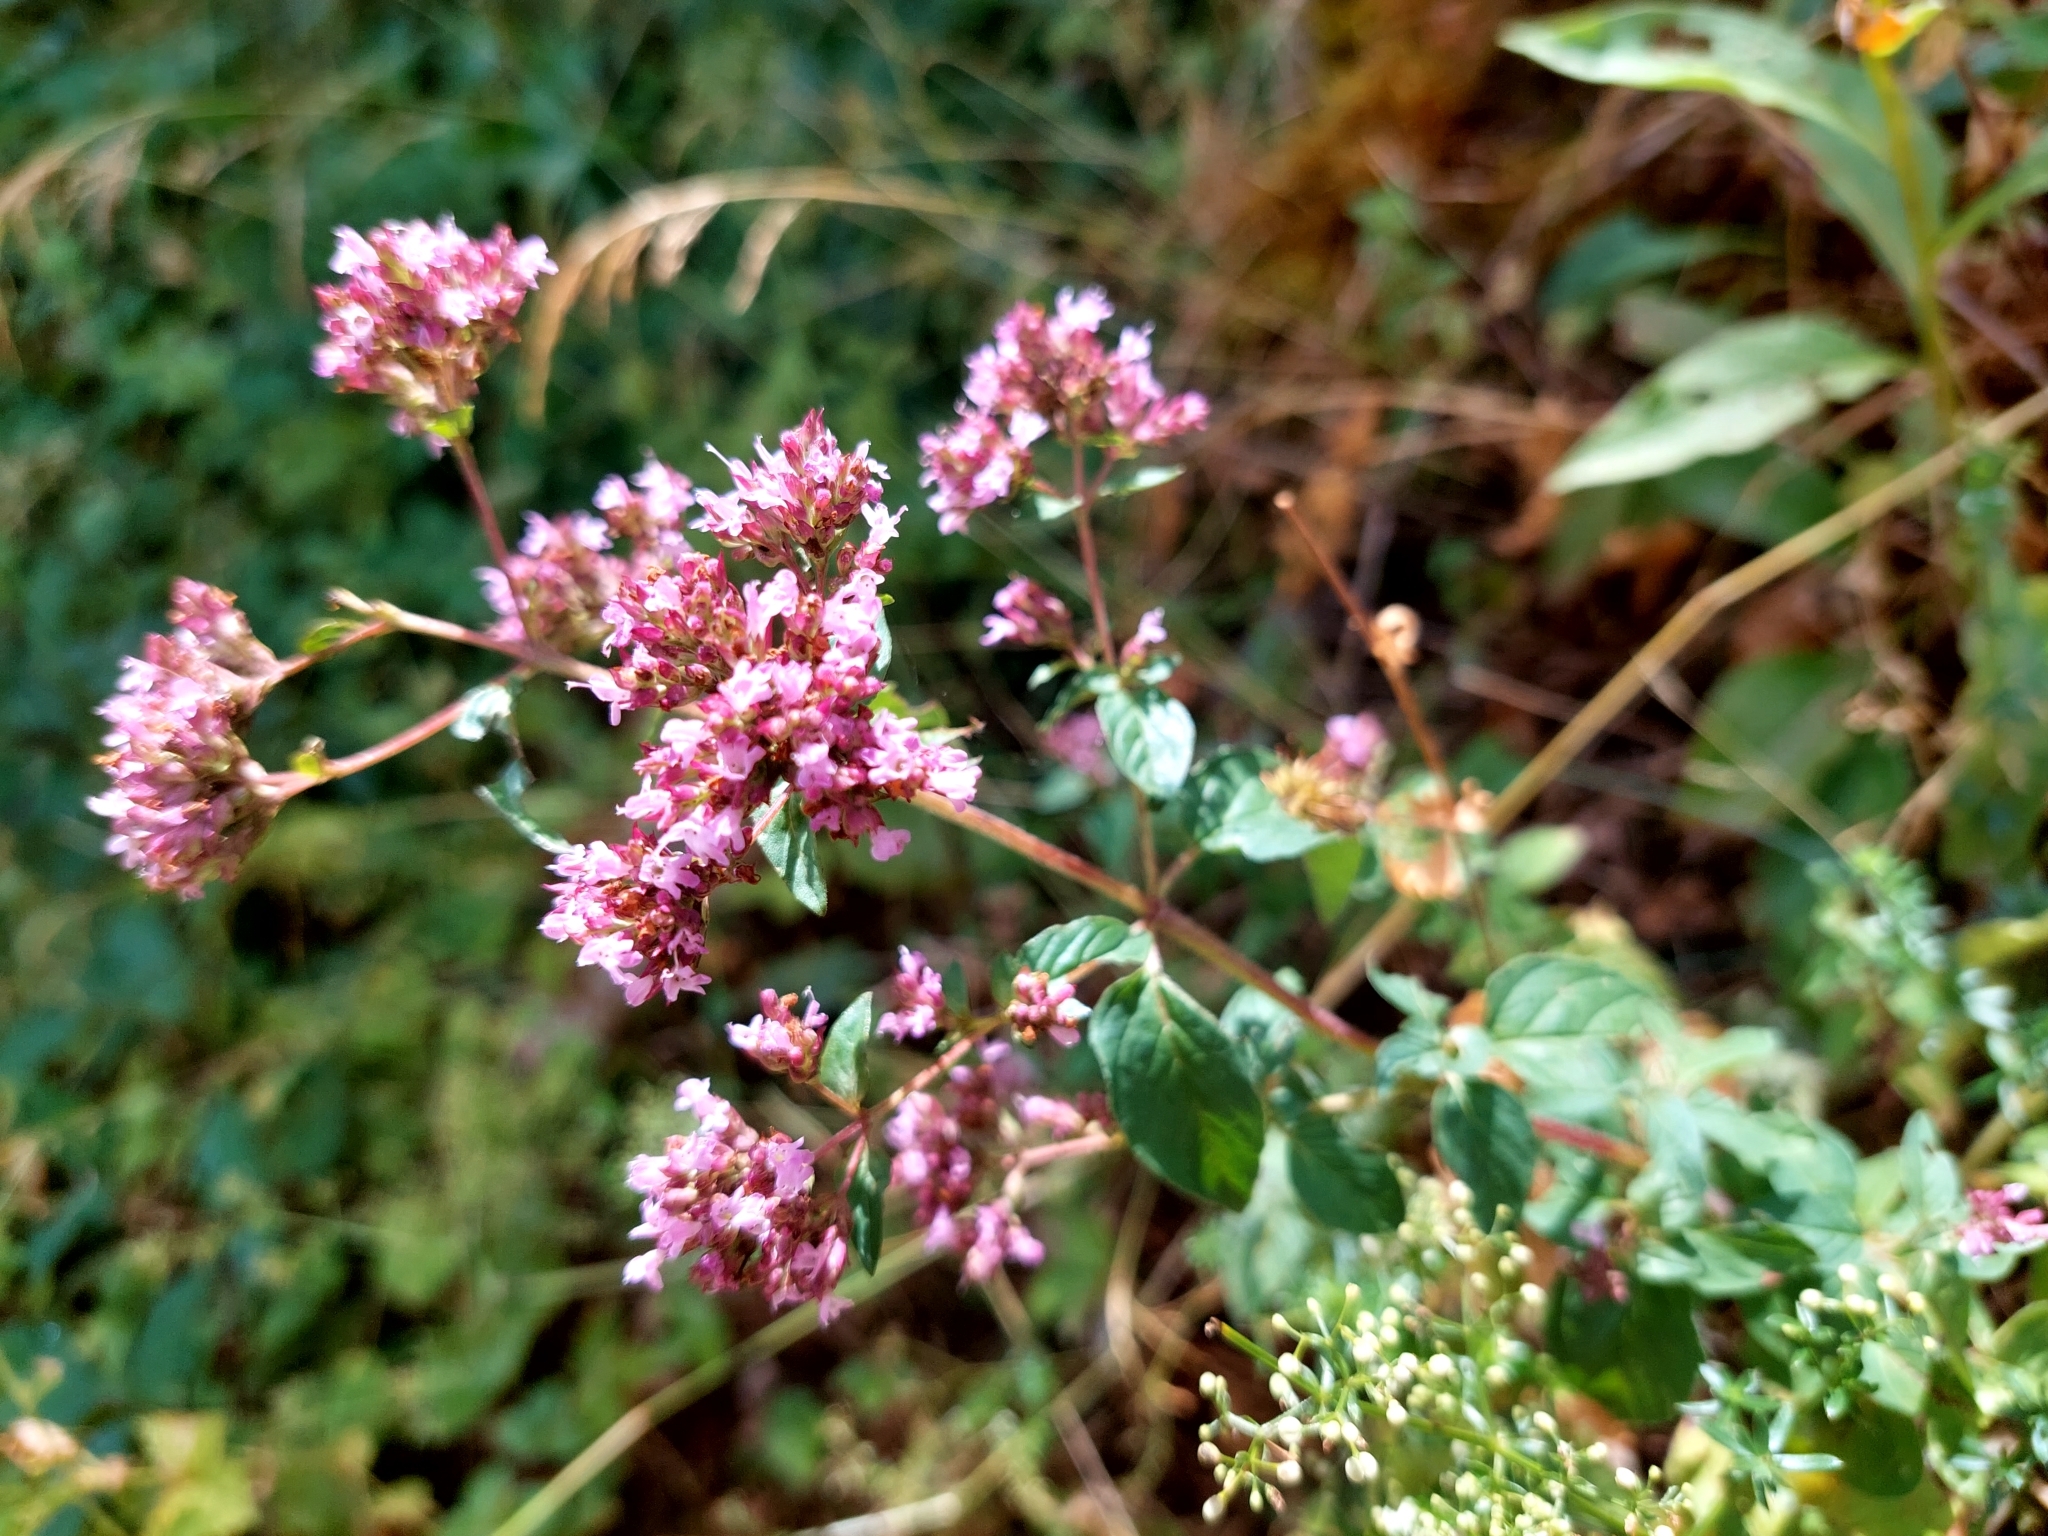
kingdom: Plantae
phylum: Tracheophyta
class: Magnoliopsida
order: Lamiales
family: Lamiaceae
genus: Origanum
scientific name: Origanum vulgare
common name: Wild marjoram
